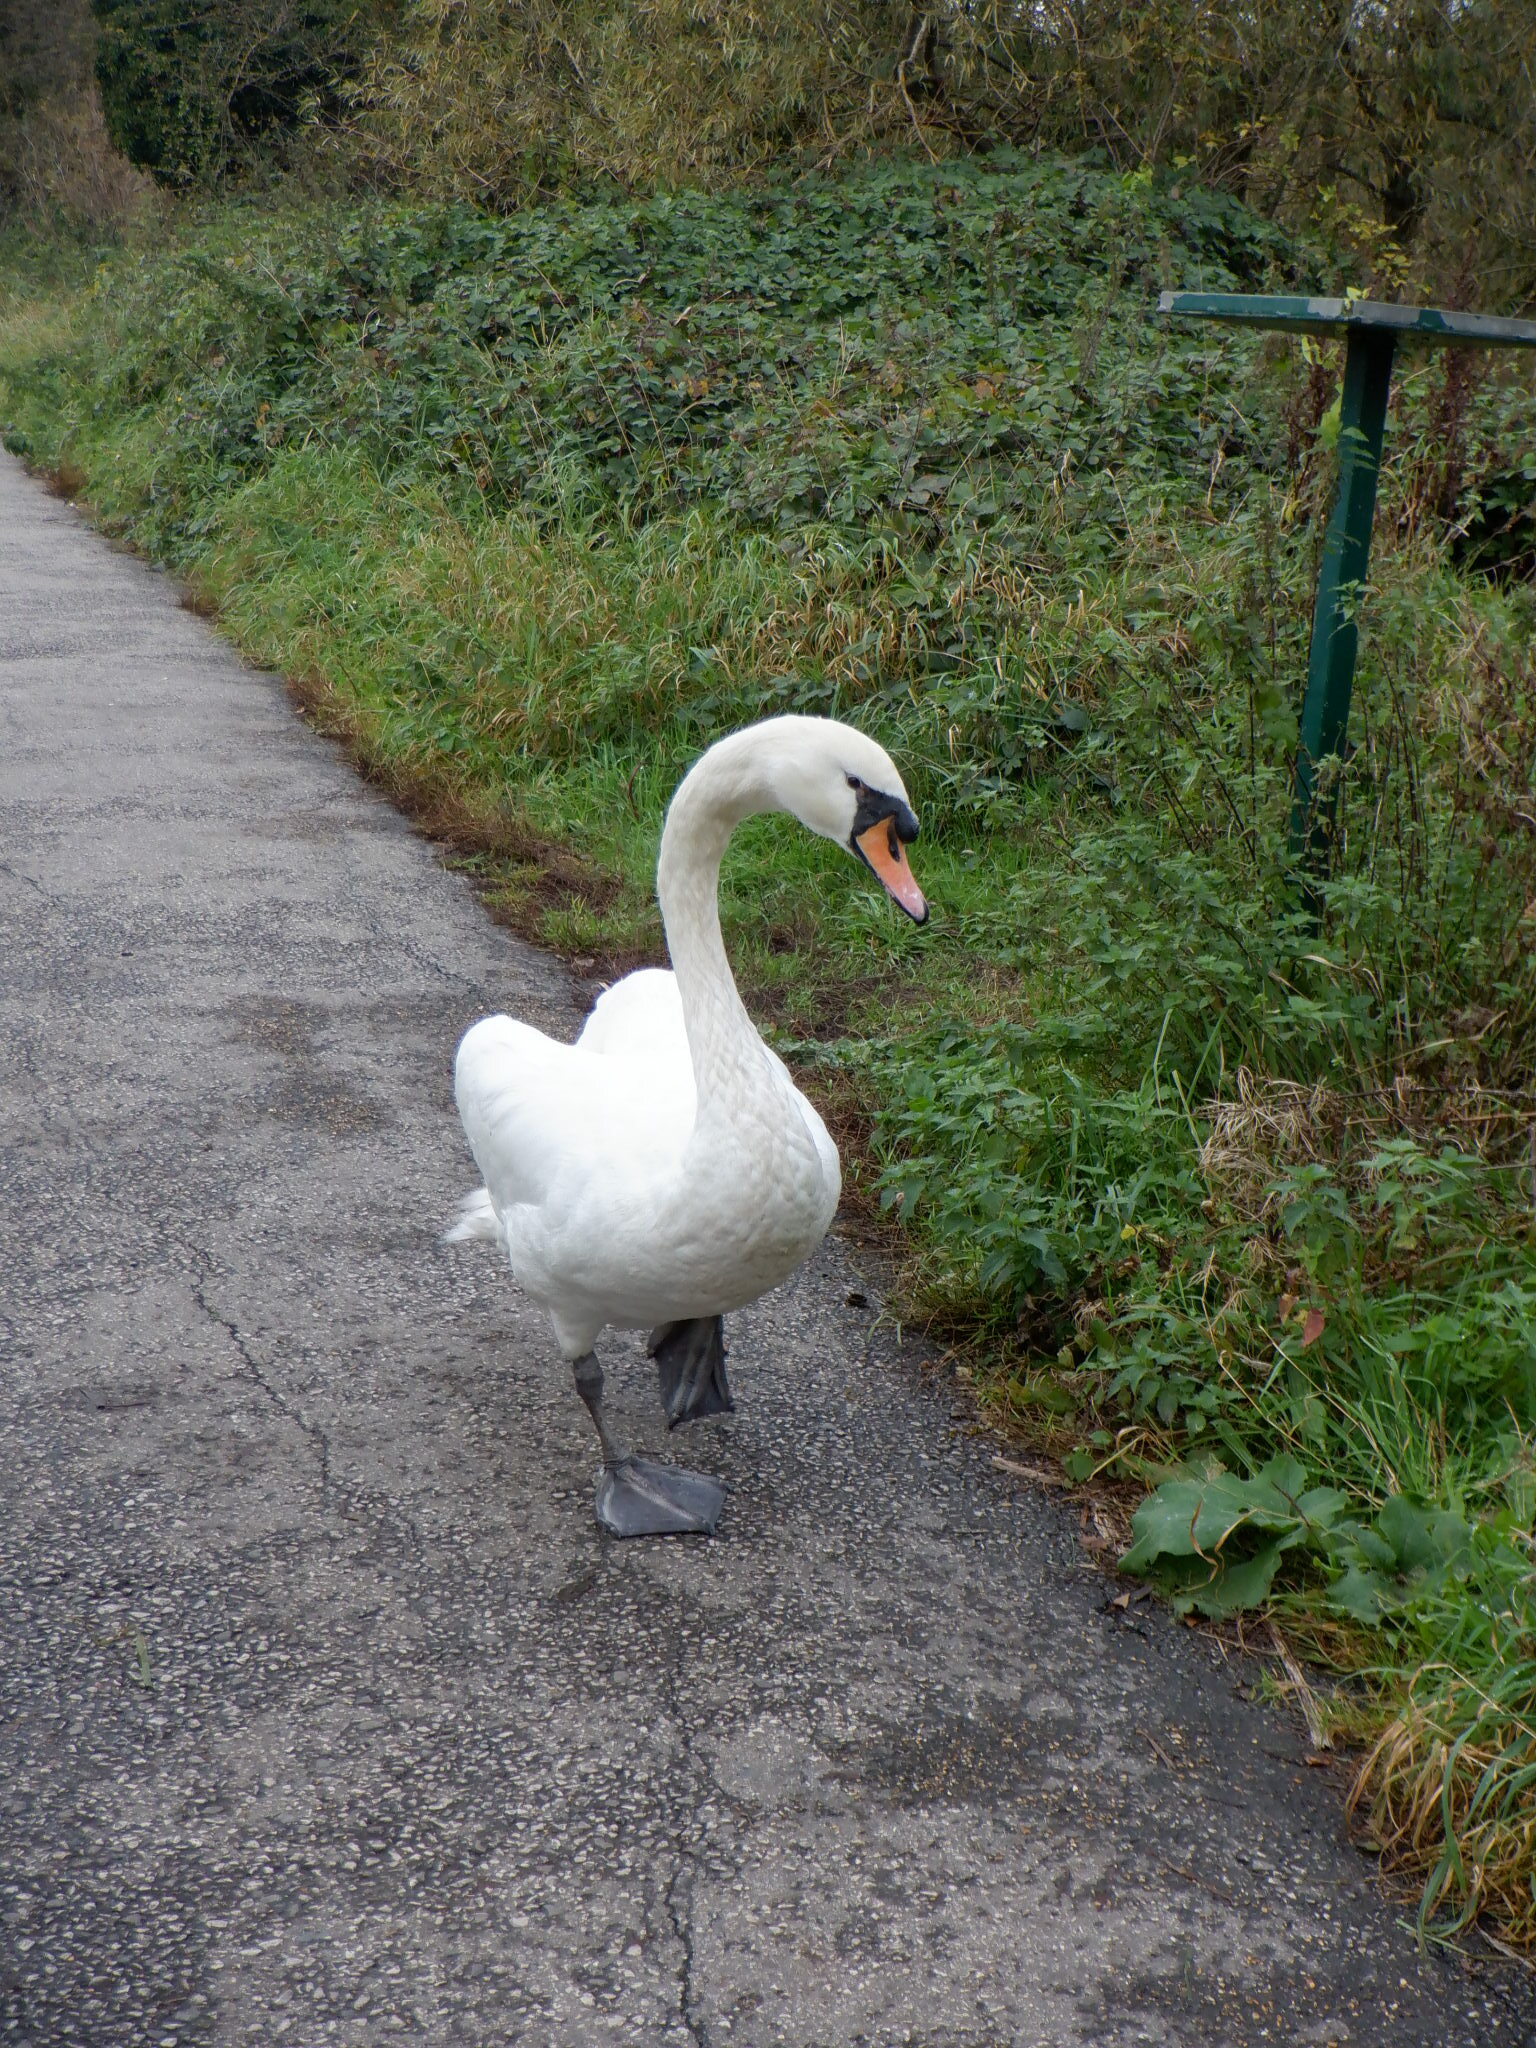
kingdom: Animalia
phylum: Chordata
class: Aves
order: Anseriformes
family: Anatidae
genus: Cygnus
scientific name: Cygnus olor
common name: Mute swan
